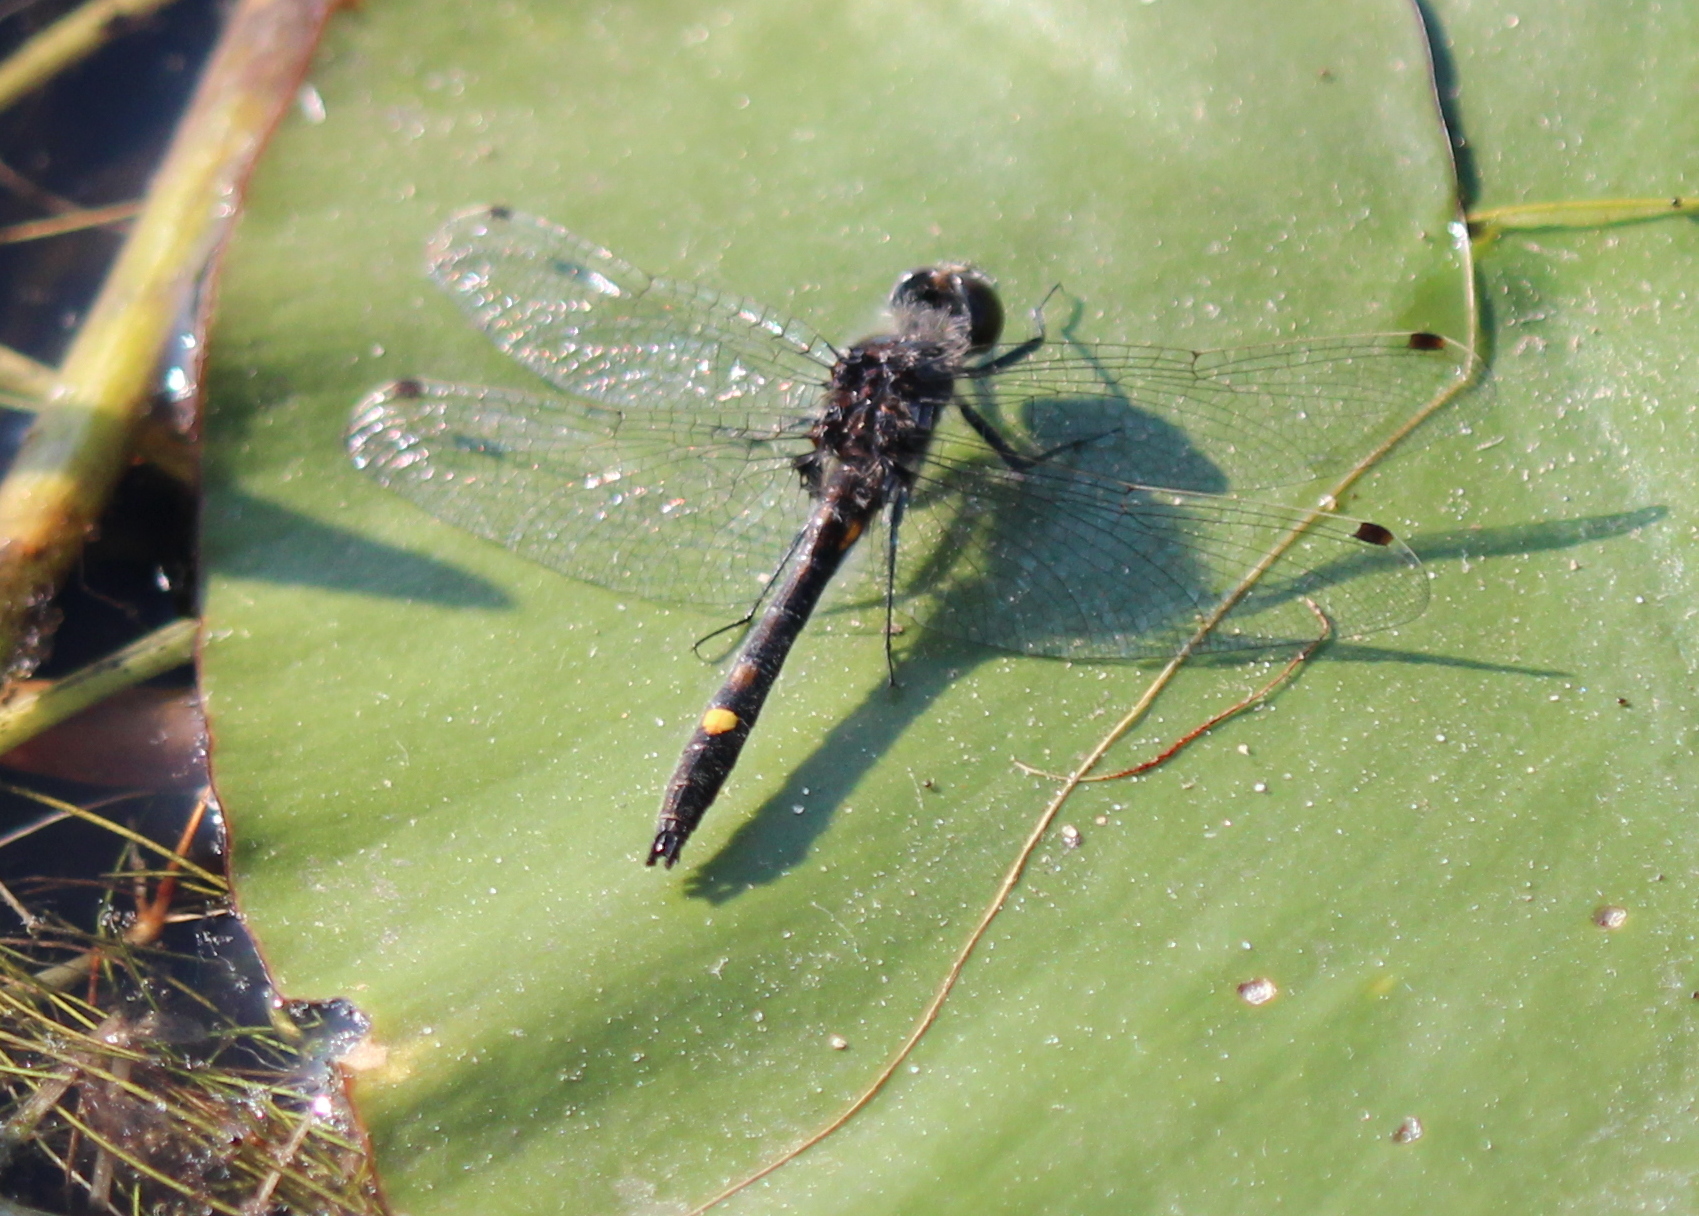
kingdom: Animalia
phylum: Arthropoda
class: Insecta
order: Odonata
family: Libellulidae
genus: Leucorrhinia
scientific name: Leucorrhinia intacta
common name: Dot-tailed whiteface
